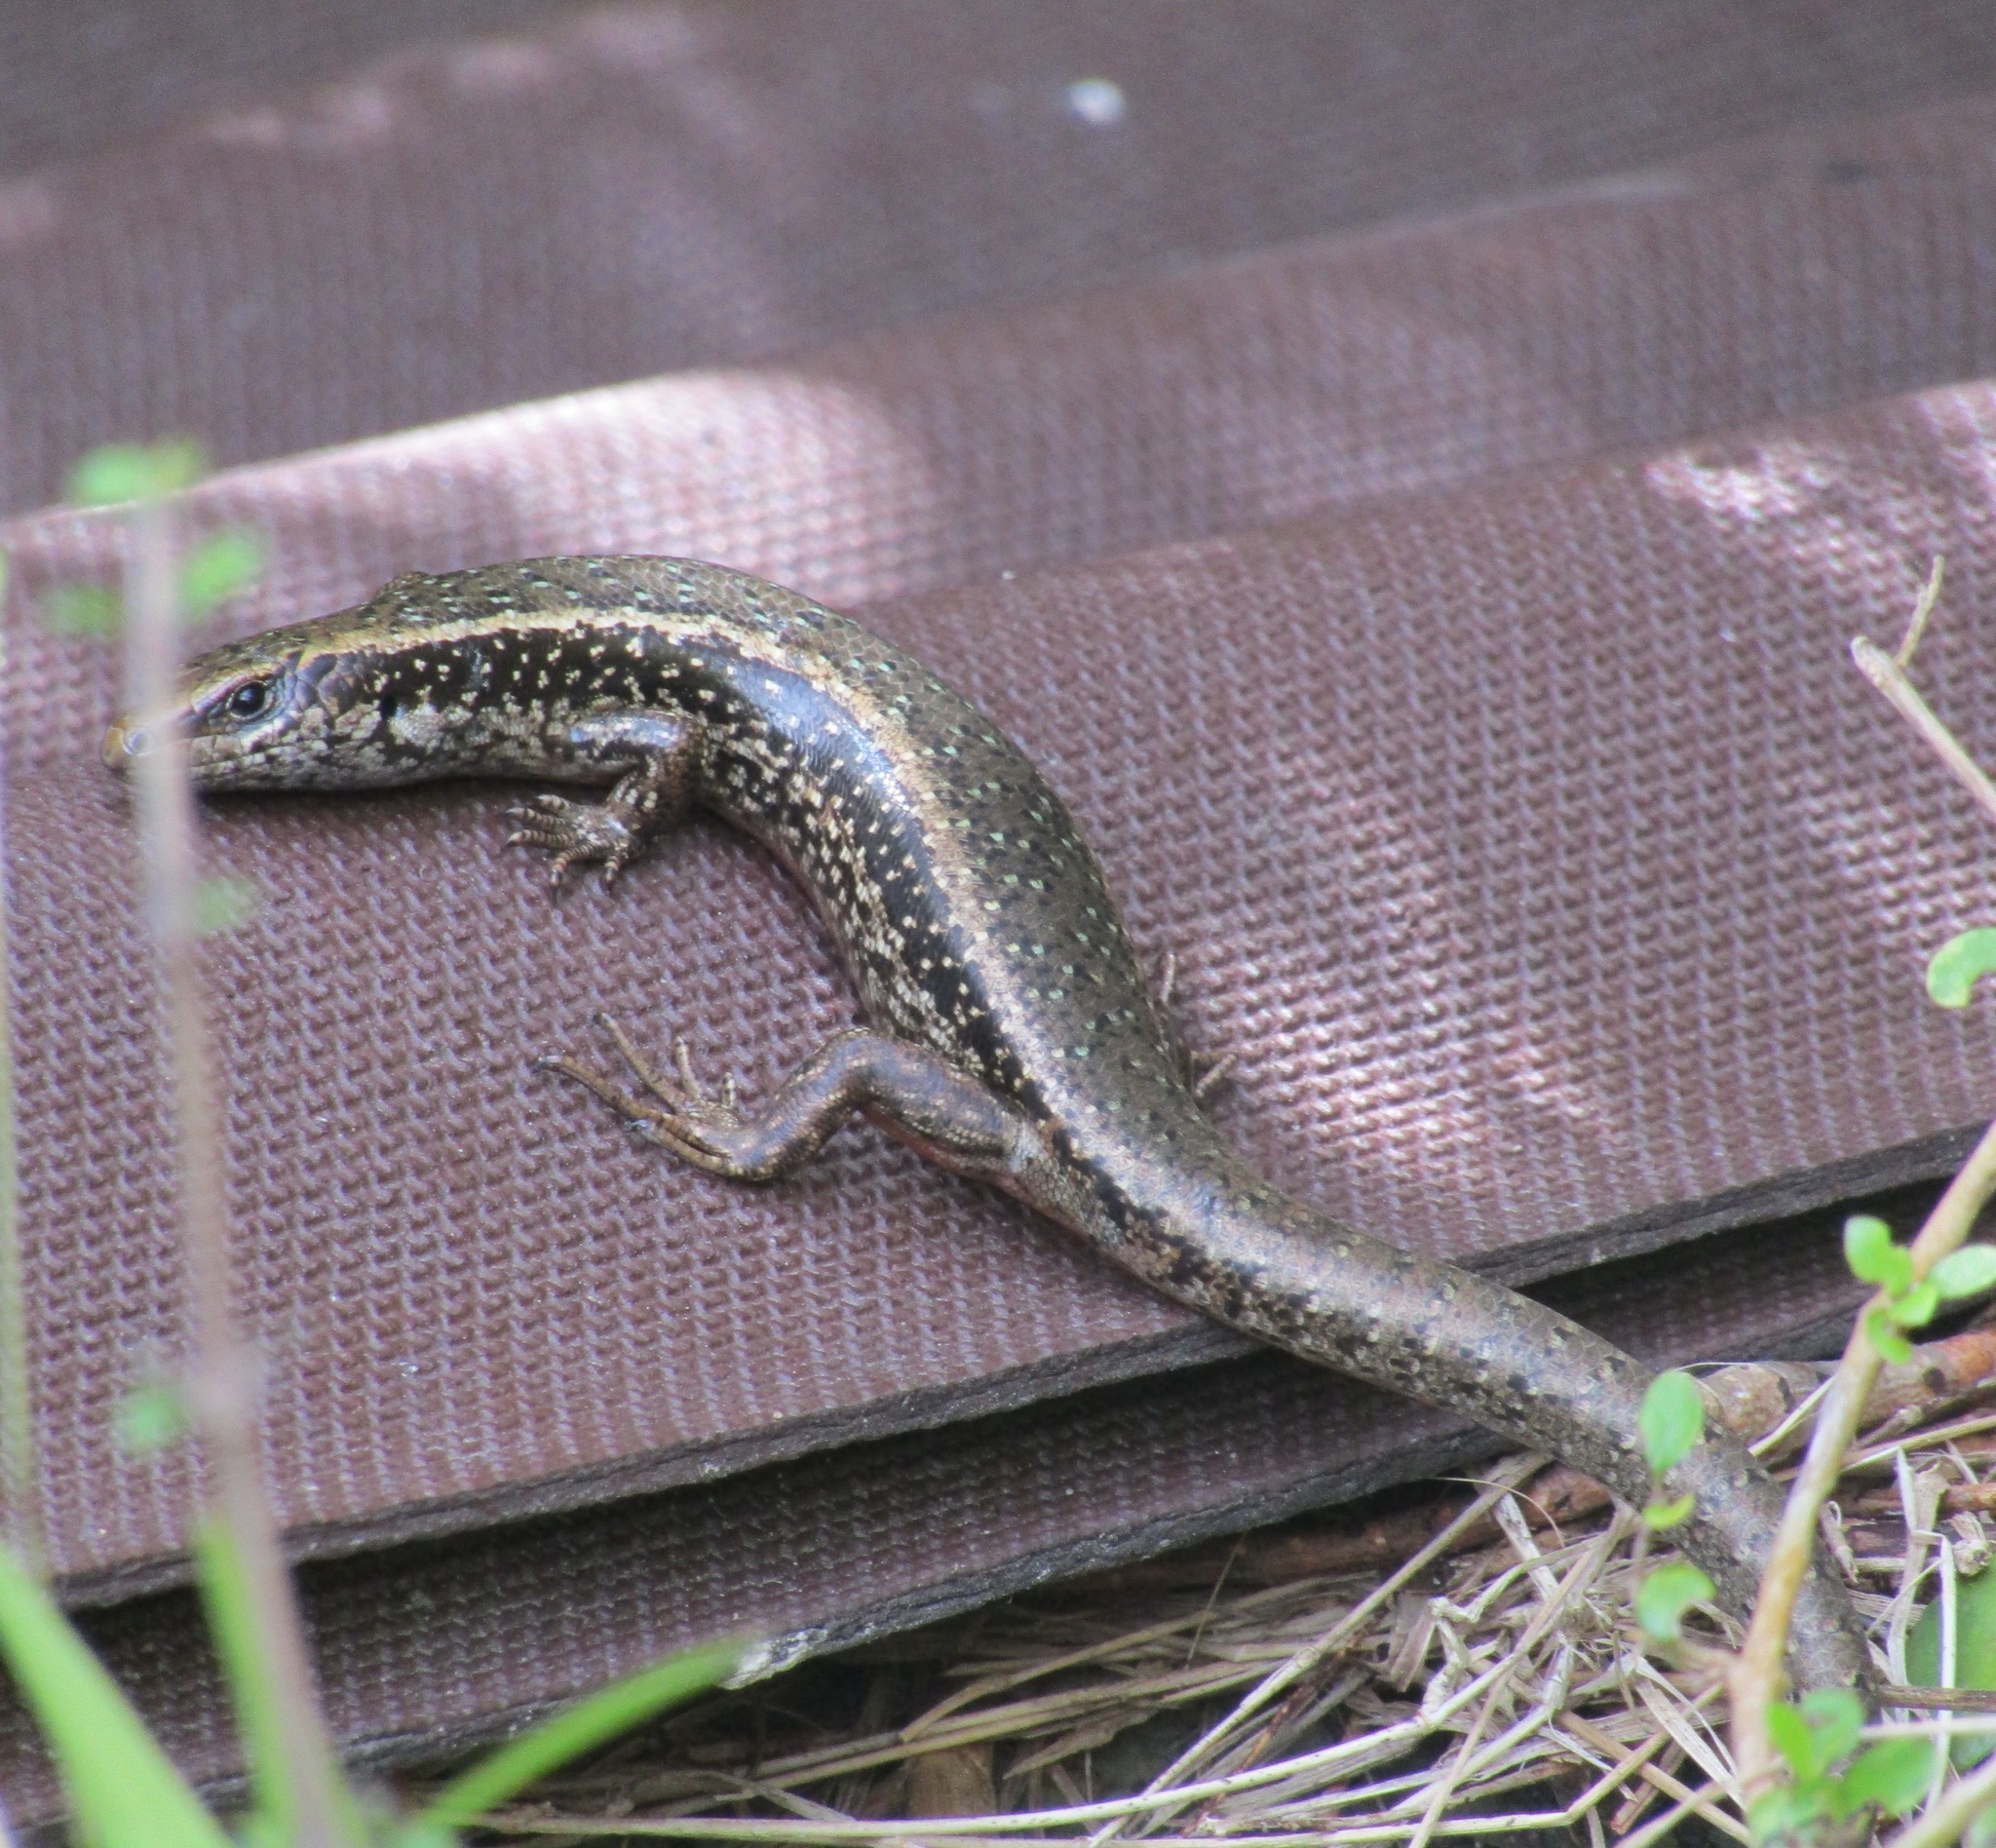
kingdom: Animalia
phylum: Chordata
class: Squamata
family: Scincidae
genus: Oligosoma
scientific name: Oligosoma kokowai
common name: Northern spotted skink
